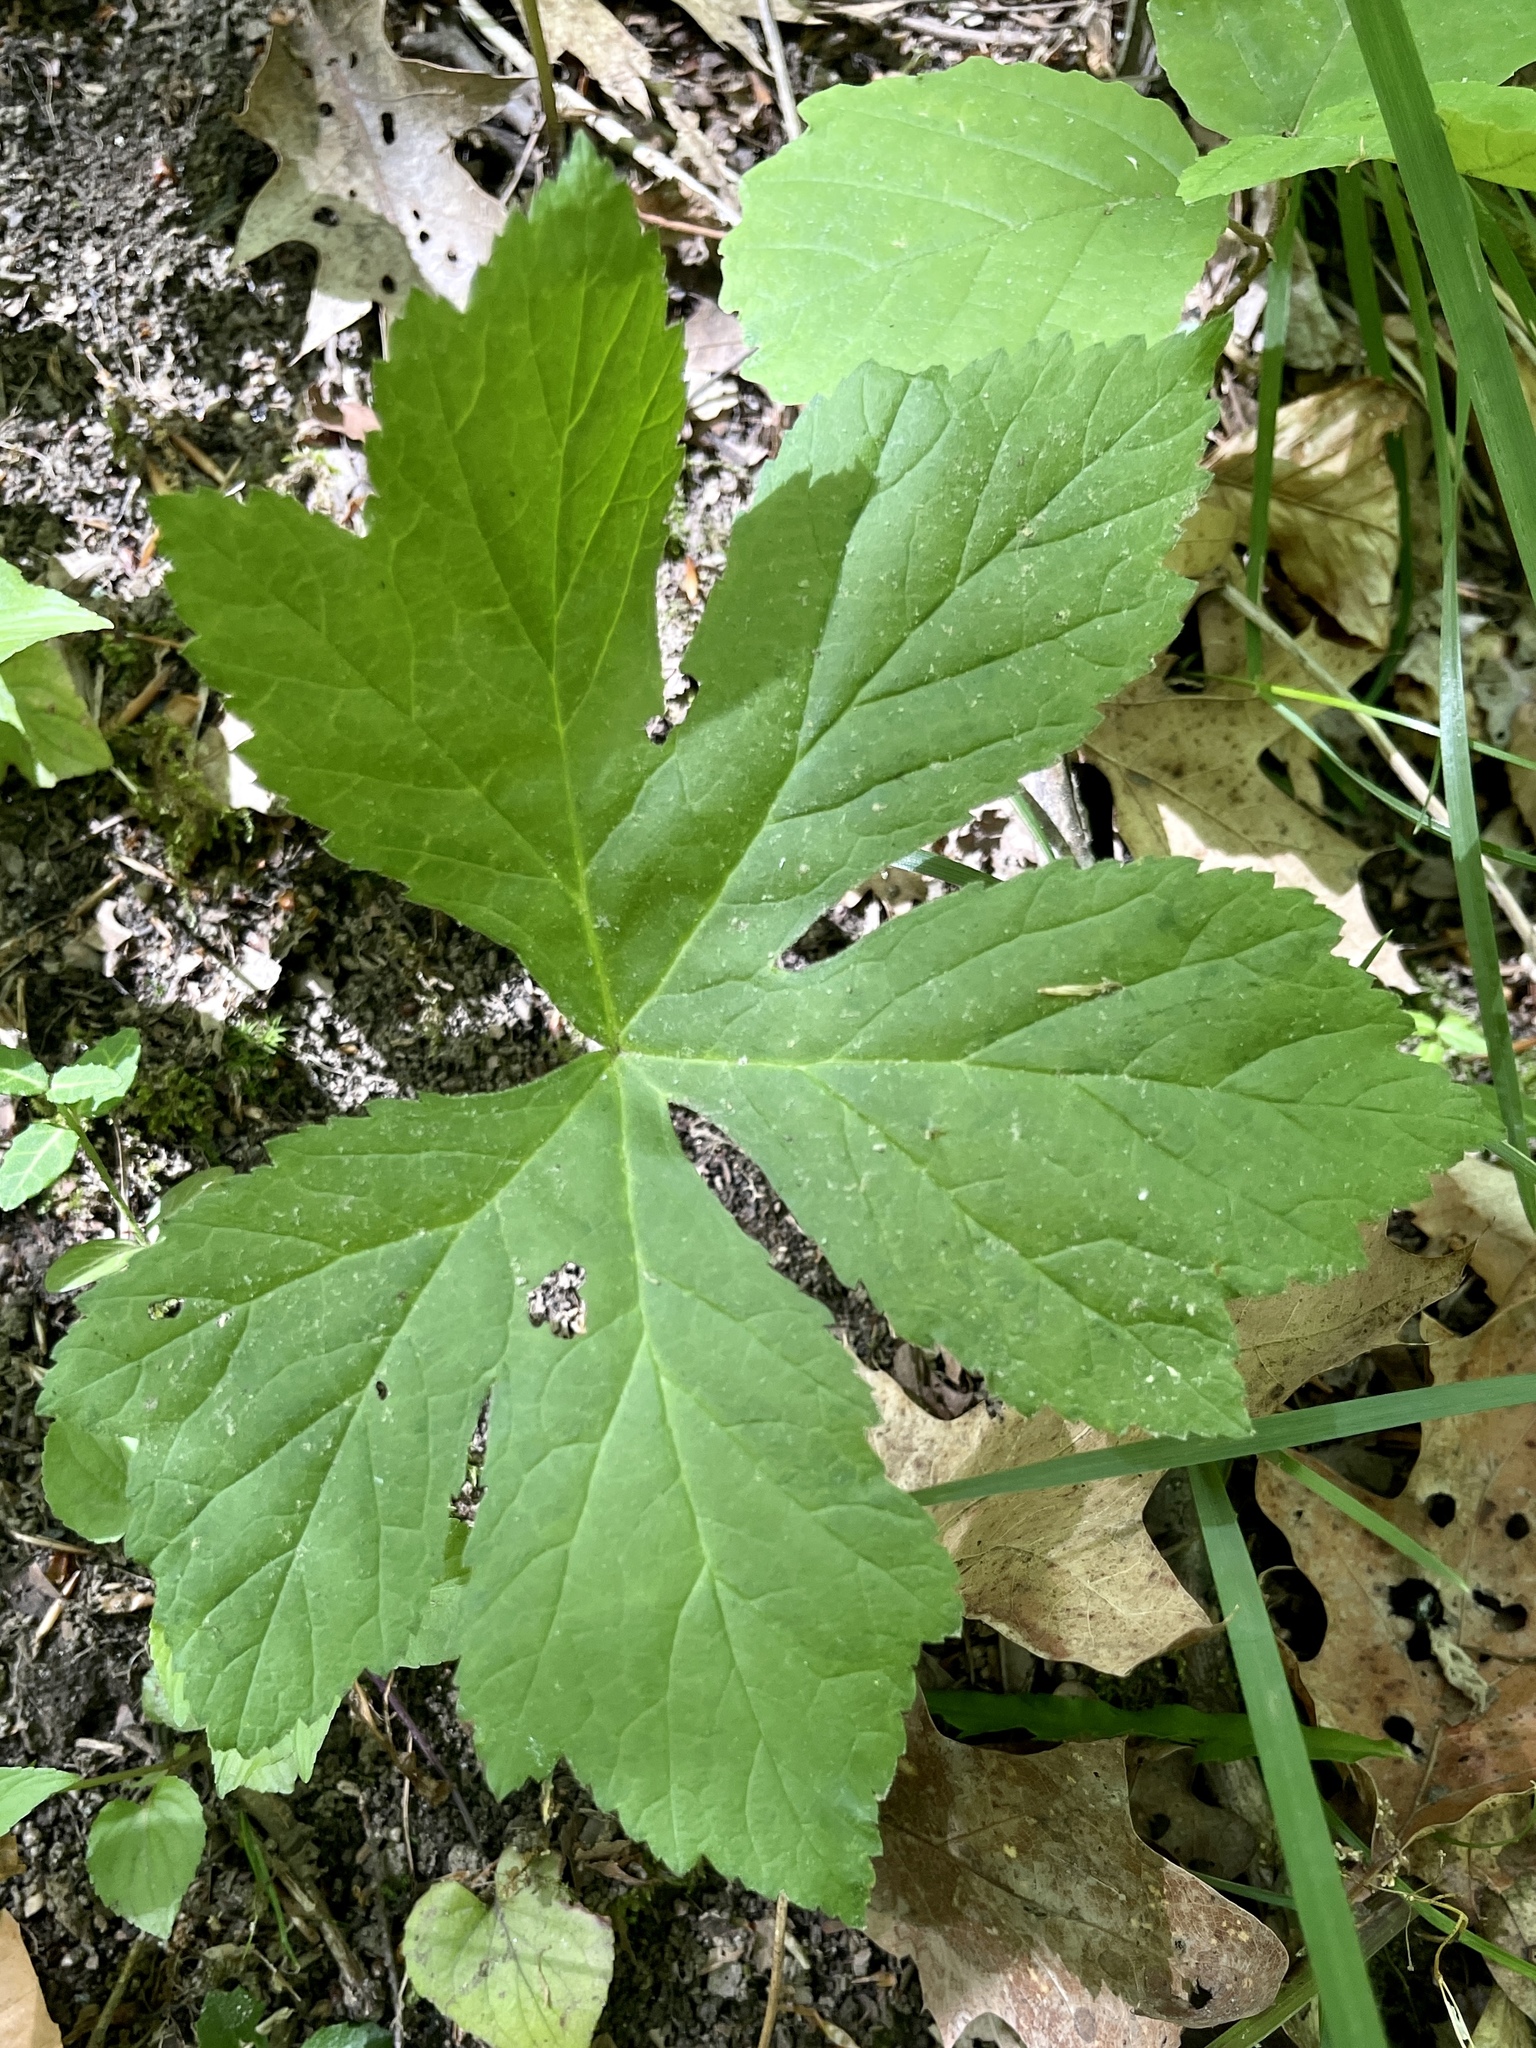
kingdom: Plantae
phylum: Tracheophyta
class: Magnoliopsida
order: Ranunculales
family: Ranunculaceae
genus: Hydrastis
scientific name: Hydrastis canadensis
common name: Goldenseal
